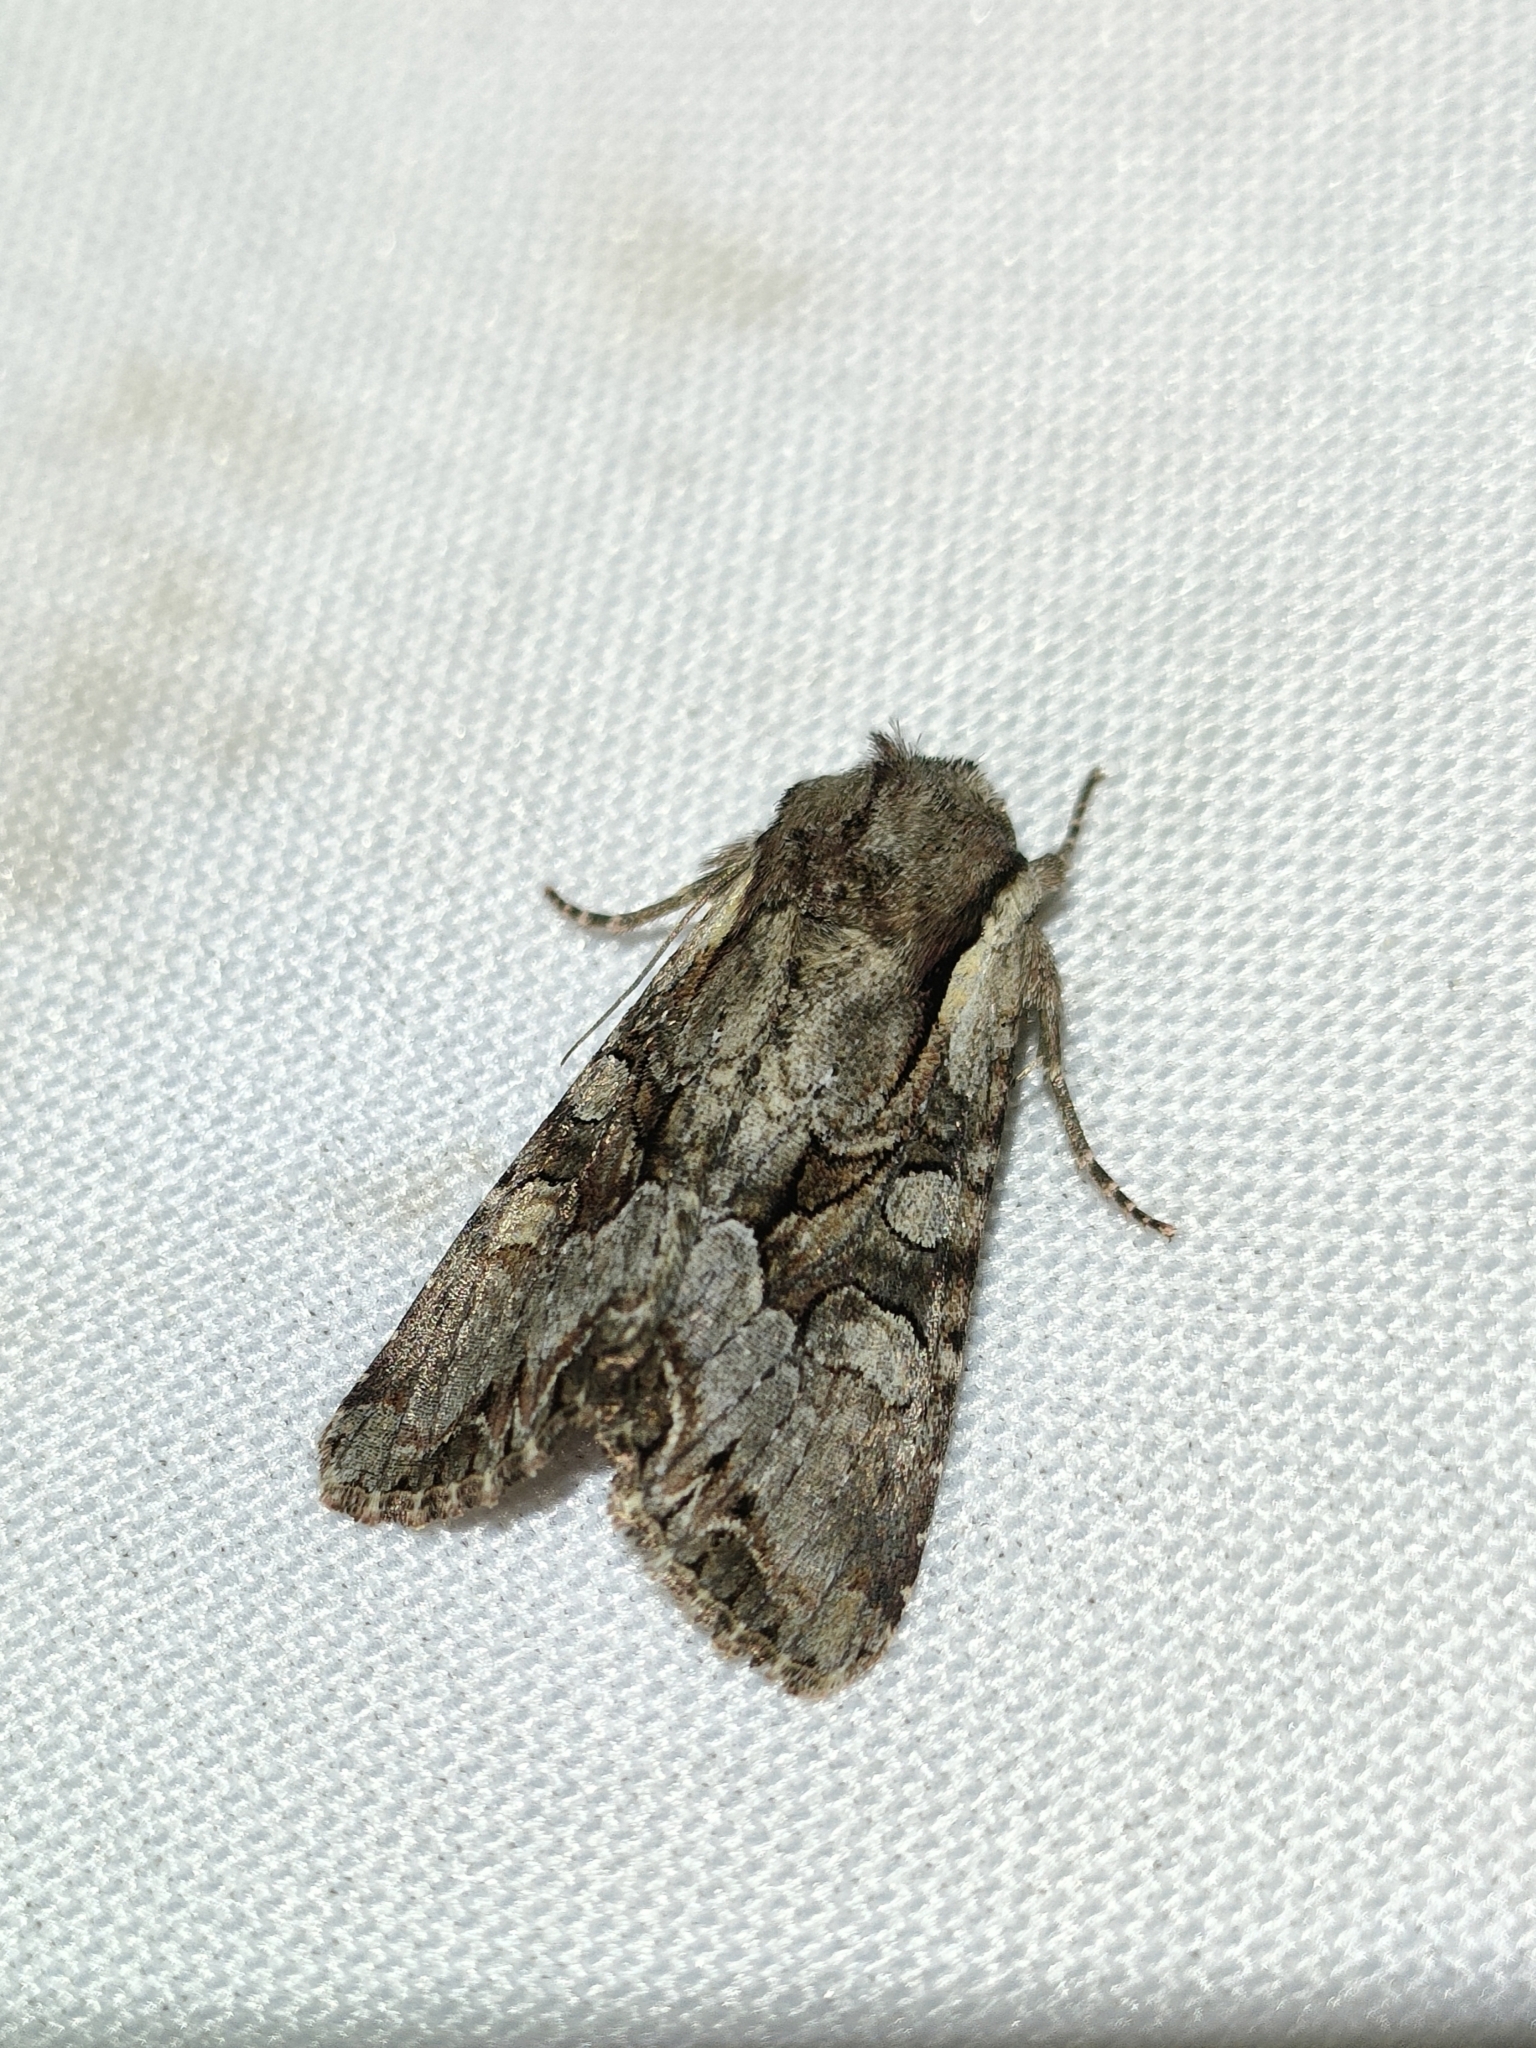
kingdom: Animalia
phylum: Arthropoda
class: Insecta
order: Lepidoptera
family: Noctuidae
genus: Lacanobia
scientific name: Lacanobia w-latinum
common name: Light brocade
